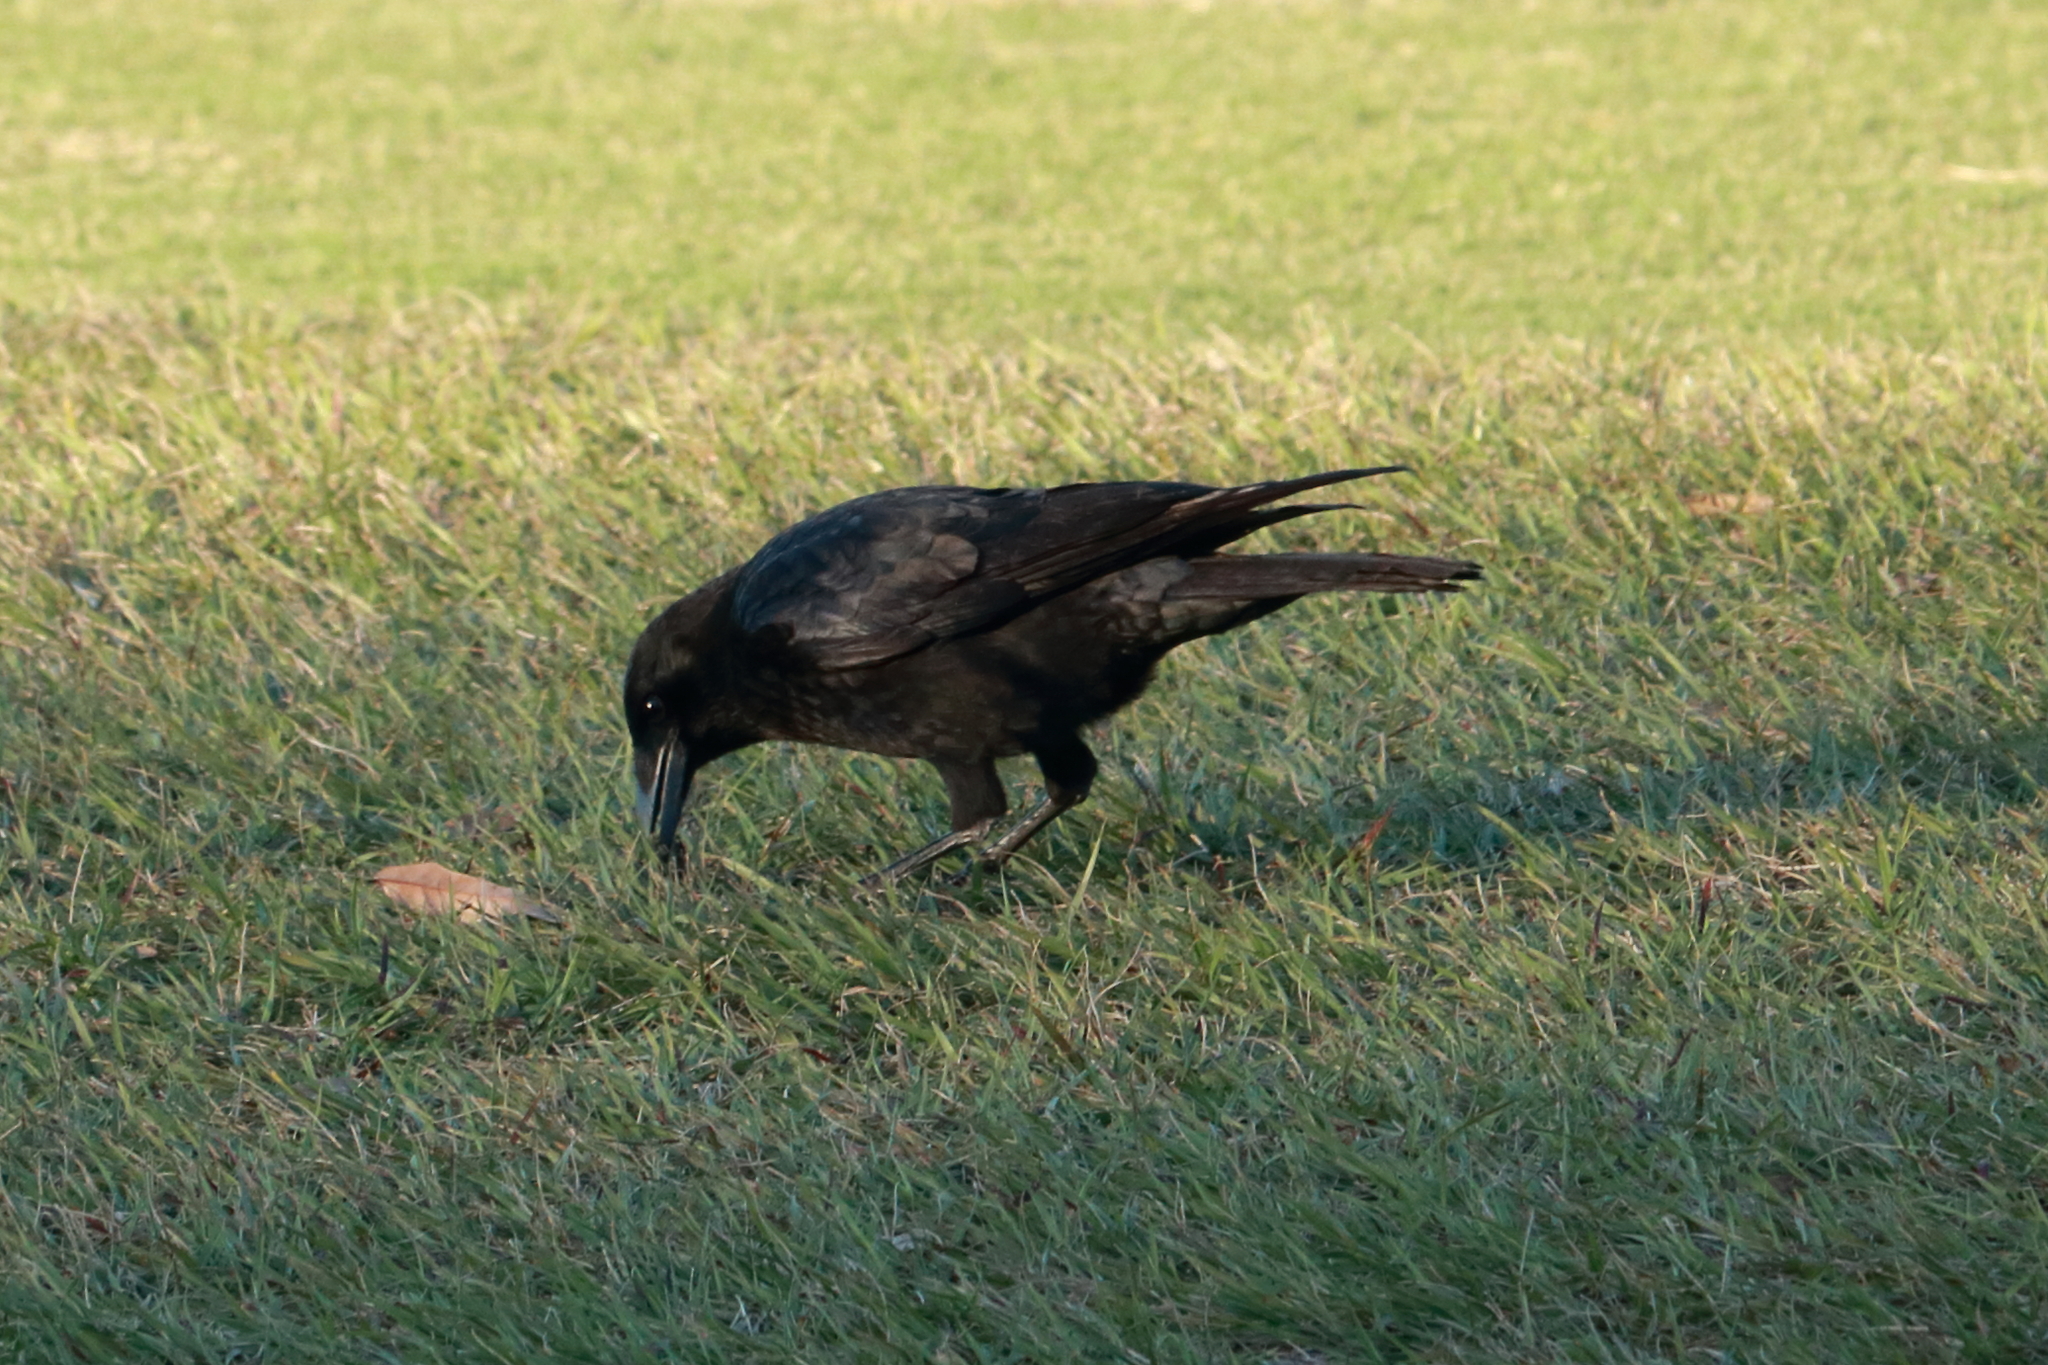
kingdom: Animalia
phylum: Chordata
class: Aves
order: Passeriformes
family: Corvidae
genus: Corvus
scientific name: Corvus brachyrhynchos
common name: American crow
